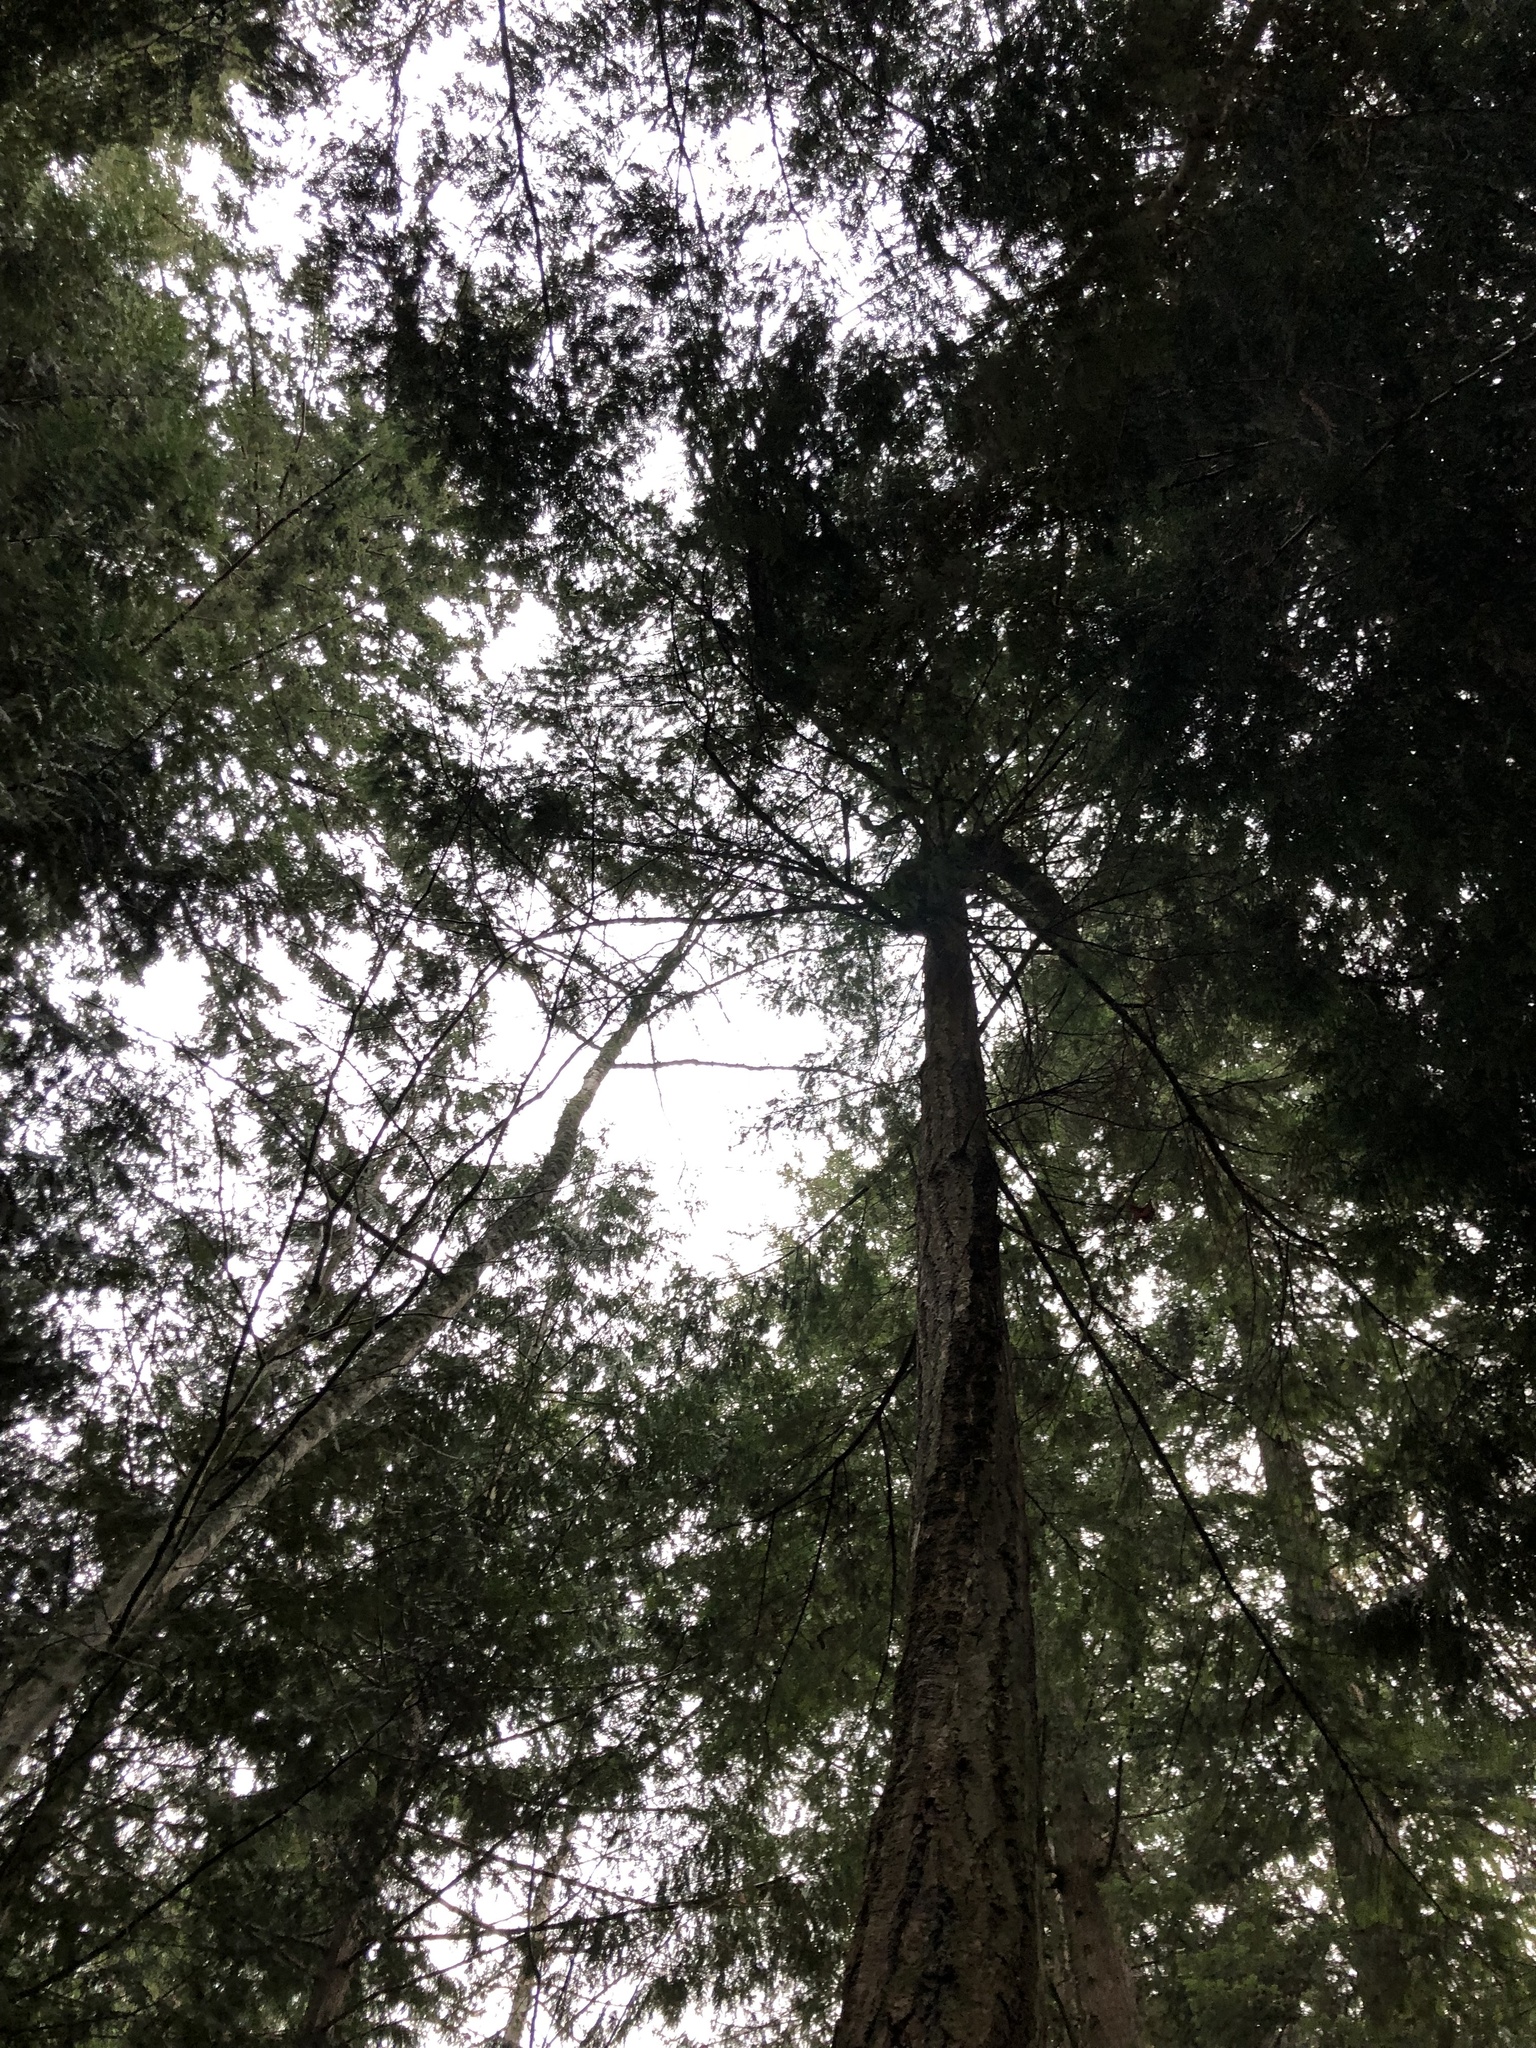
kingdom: Plantae
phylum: Tracheophyta
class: Pinopsida
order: Pinales
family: Pinaceae
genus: Pseudotsuga
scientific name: Pseudotsuga menziesii
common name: Douglas fir
